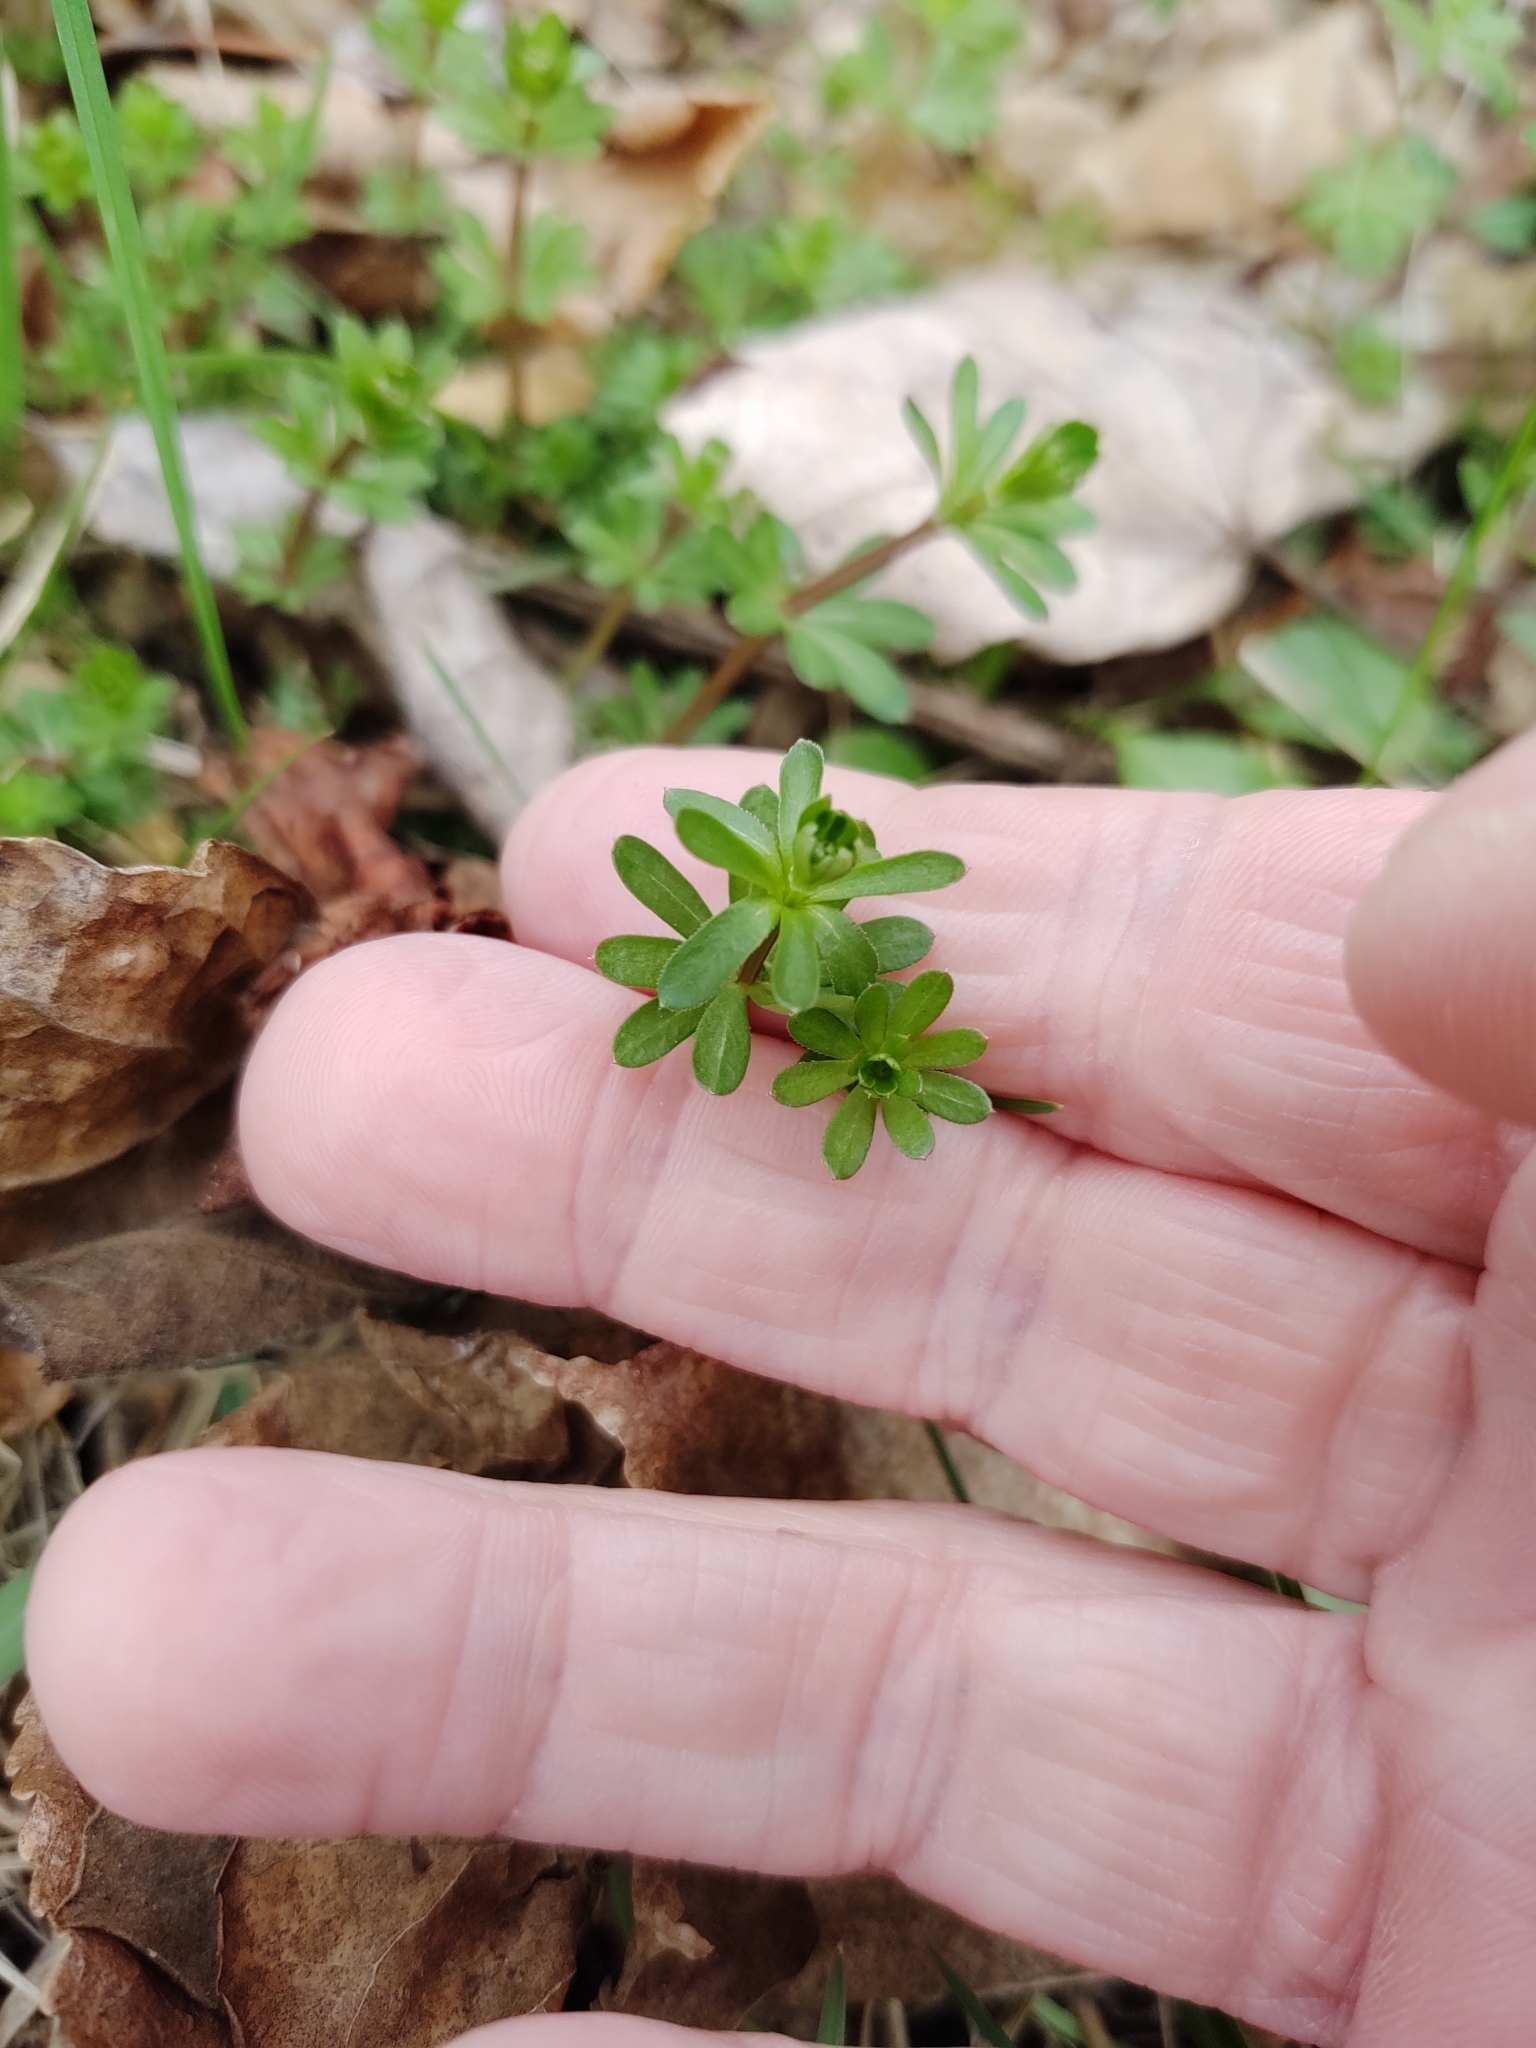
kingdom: Plantae
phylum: Tracheophyta
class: Magnoliopsida
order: Gentianales
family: Rubiaceae
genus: Galium
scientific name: Galium mollugo
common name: Hedge bedstraw
